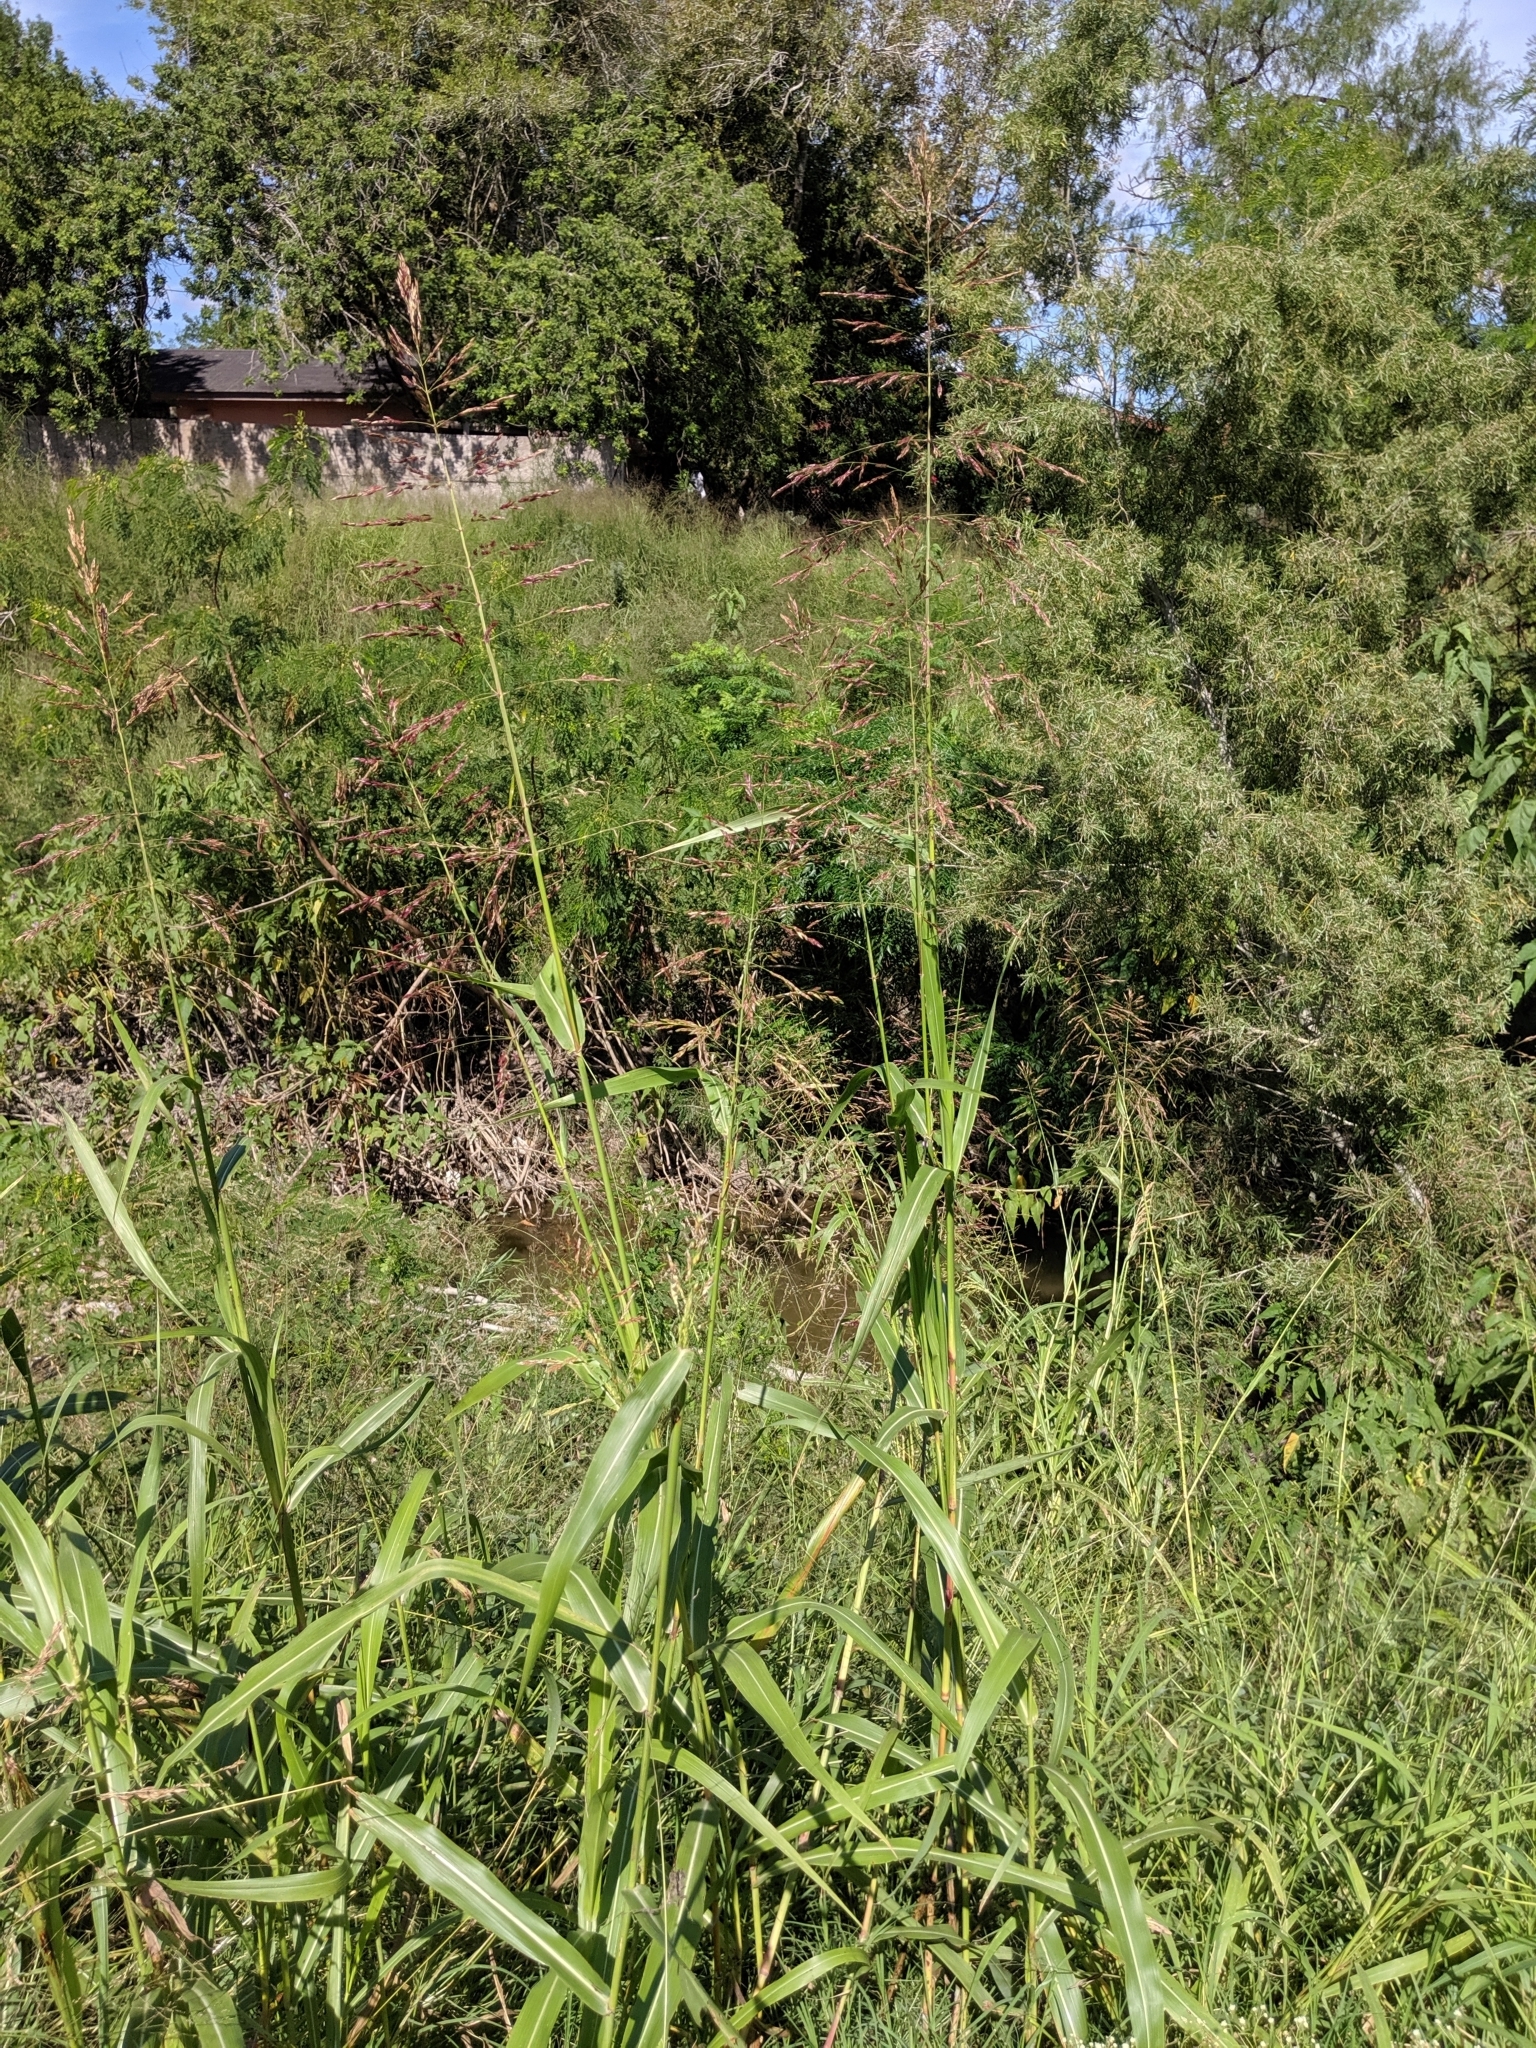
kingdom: Plantae
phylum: Tracheophyta
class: Liliopsida
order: Poales
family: Poaceae
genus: Sorghum
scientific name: Sorghum halepense
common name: Johnson-grass
